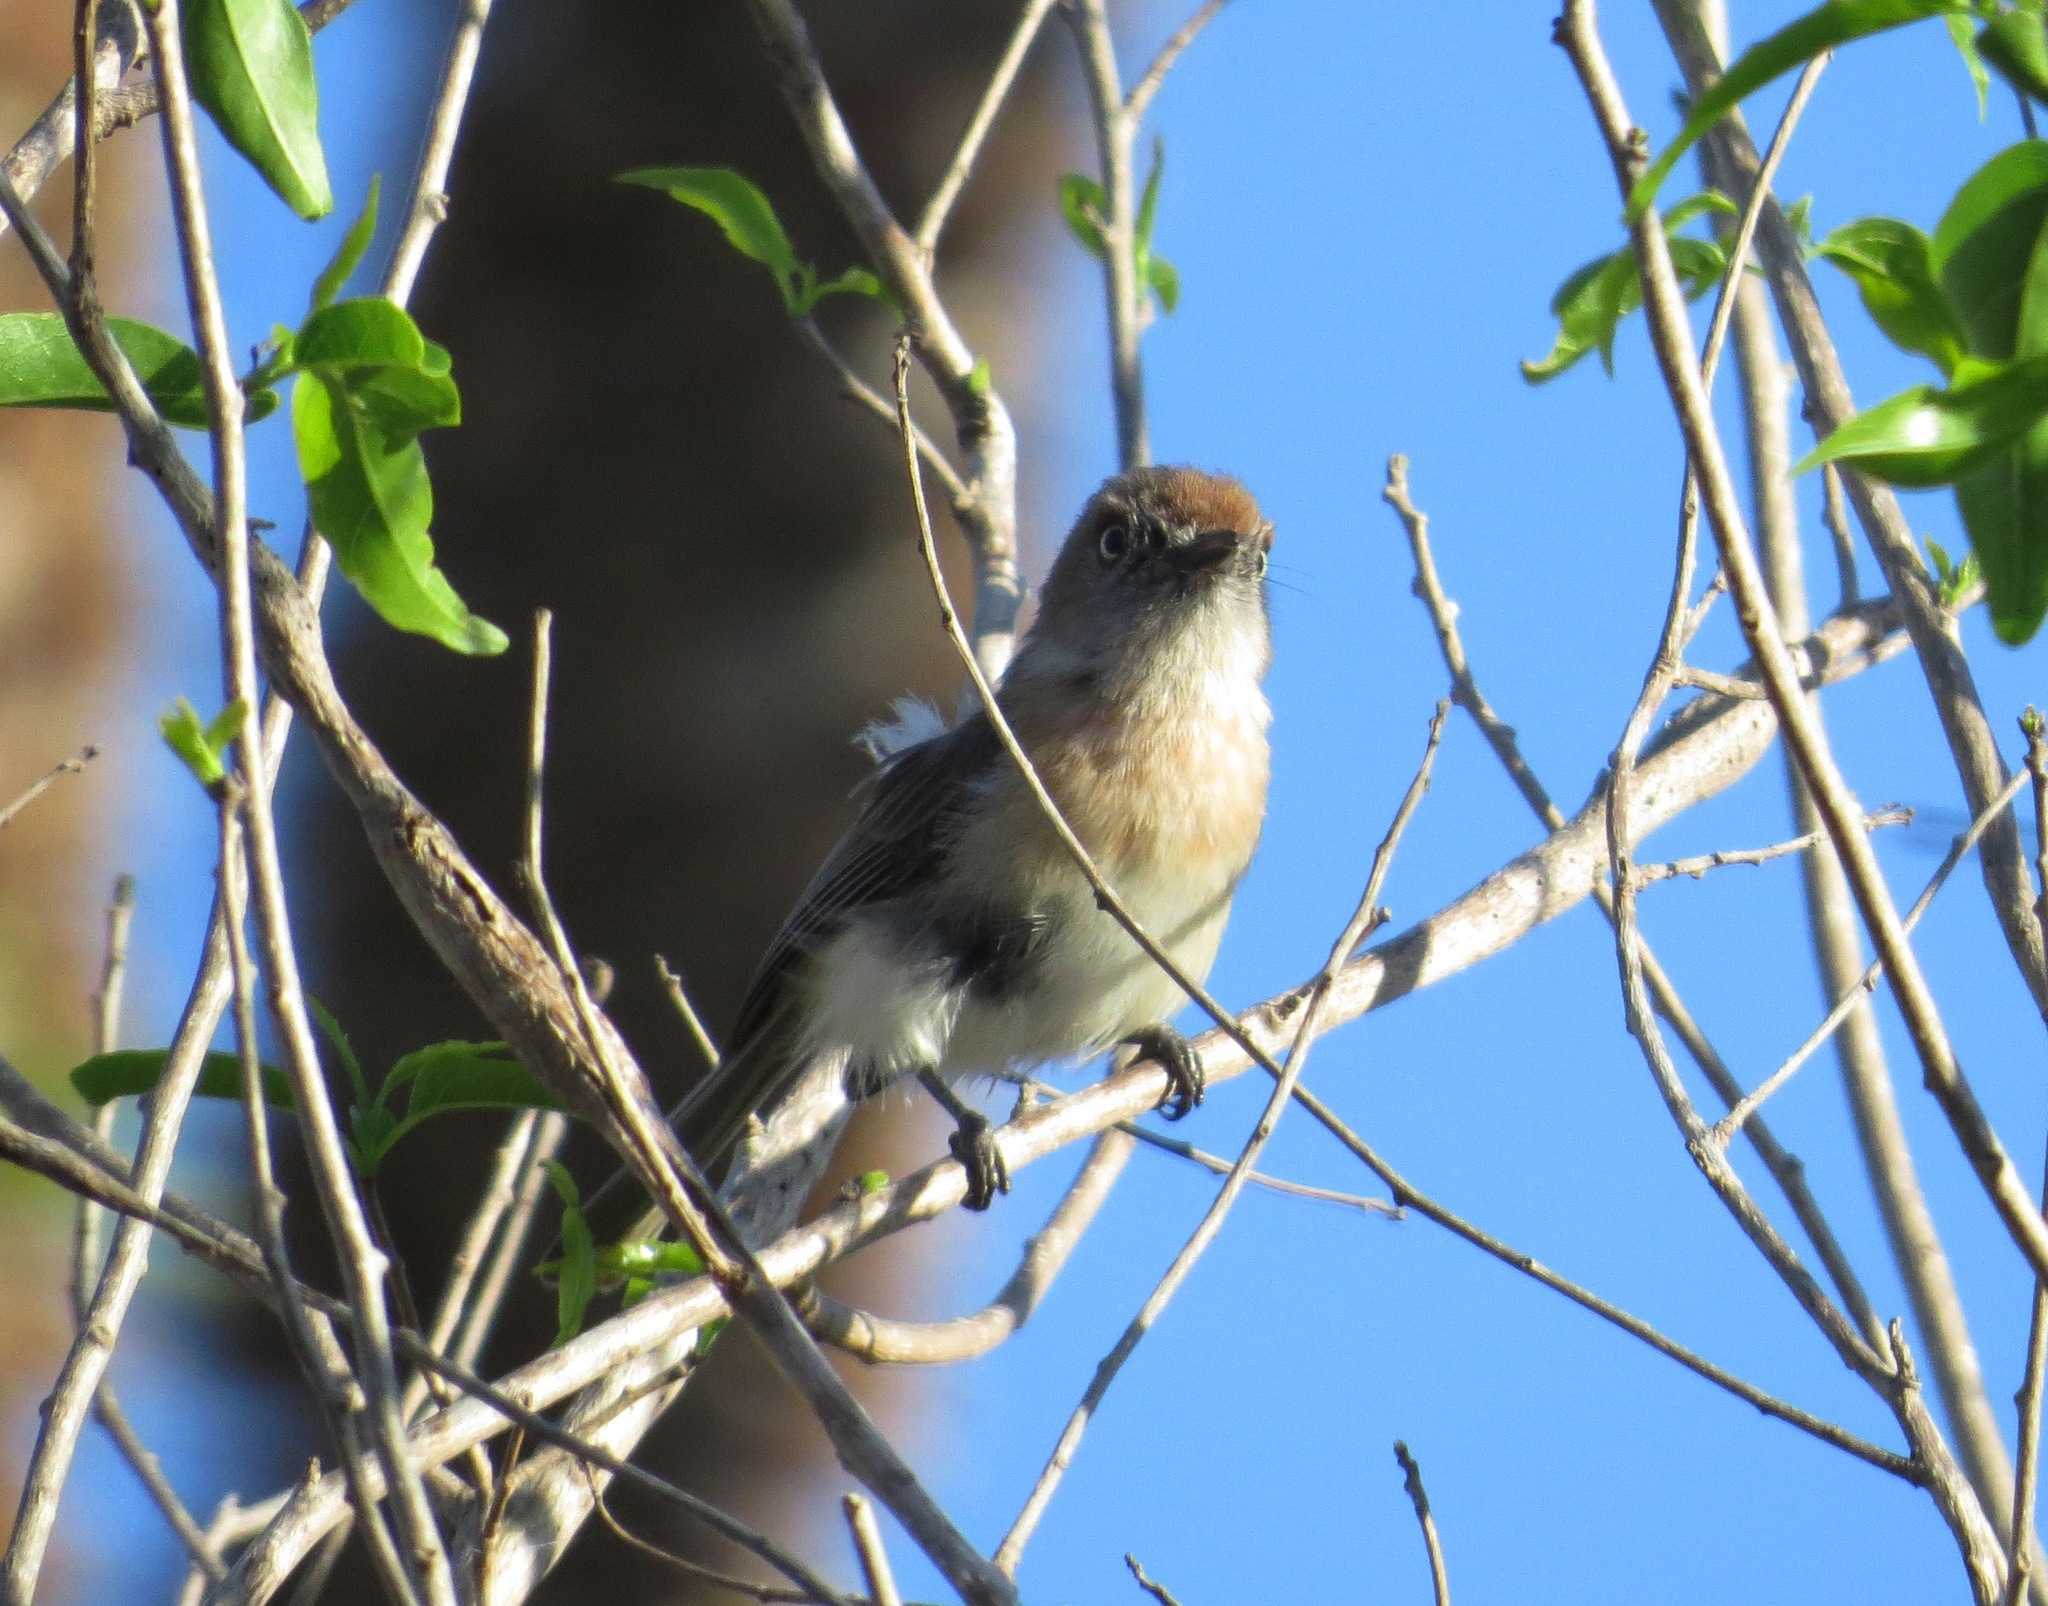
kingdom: Animalia
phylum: Chordata
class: Aves
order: Passeriformes
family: Vangidae
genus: Newtonia
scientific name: Newtonia archboldi
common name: Archbold's newtonia
